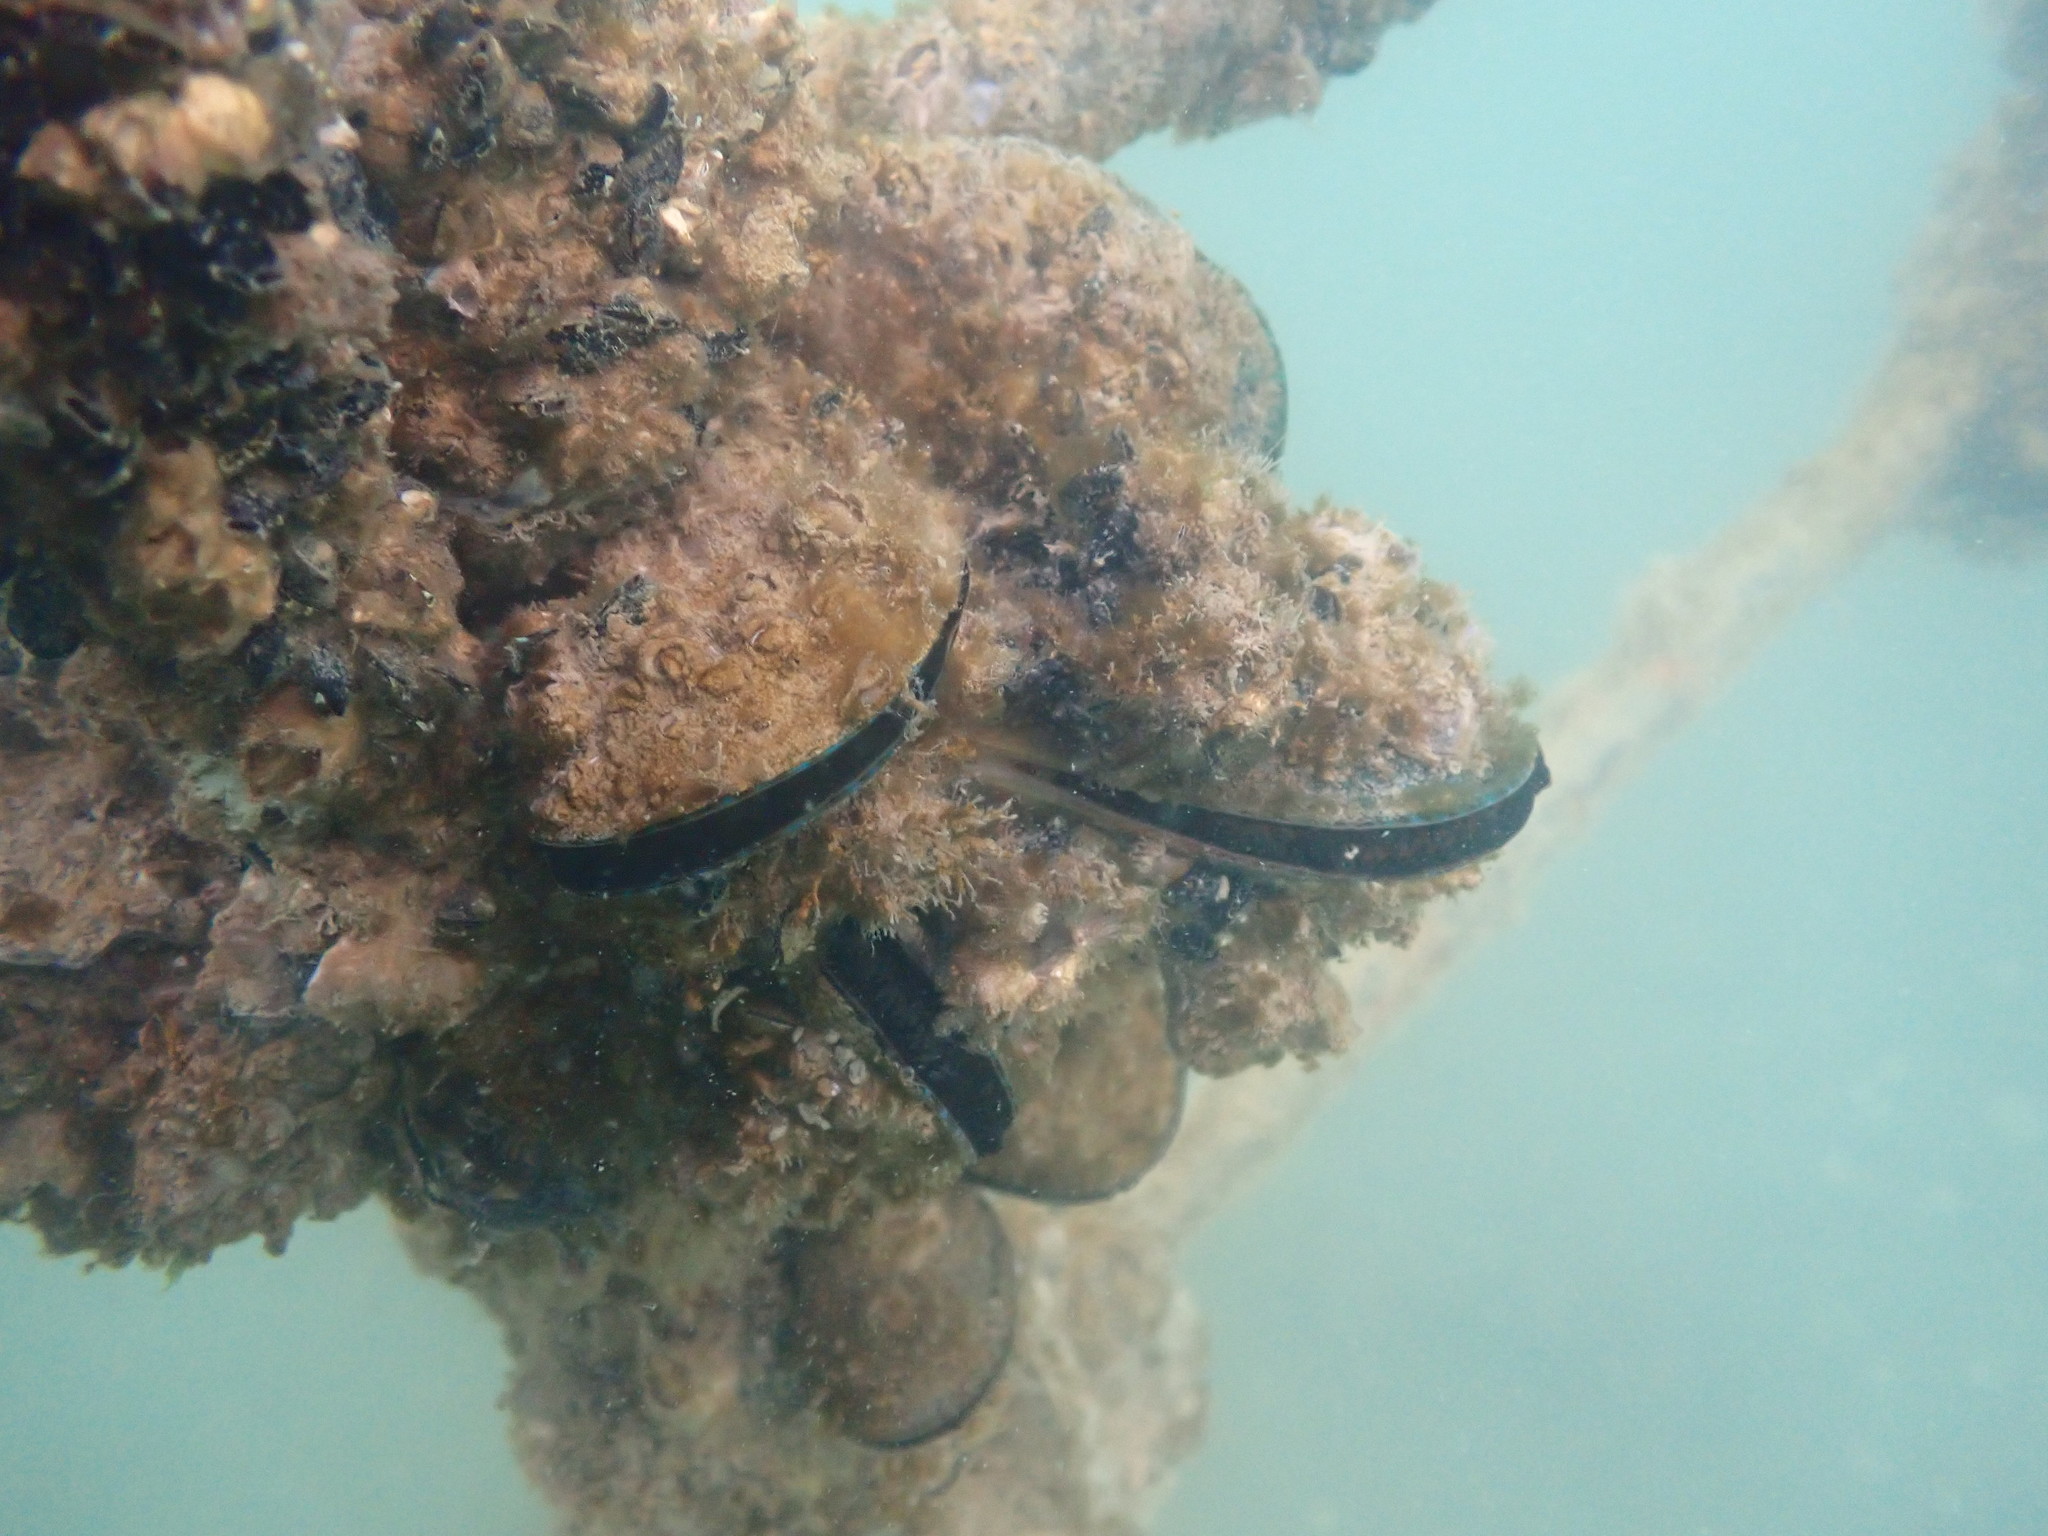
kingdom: Animalia
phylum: Mollusca
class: Bivalvia
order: Mytilida
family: Mytilidae
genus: Perna
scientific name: Perna canaliculus
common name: New zealand greenshelltm
